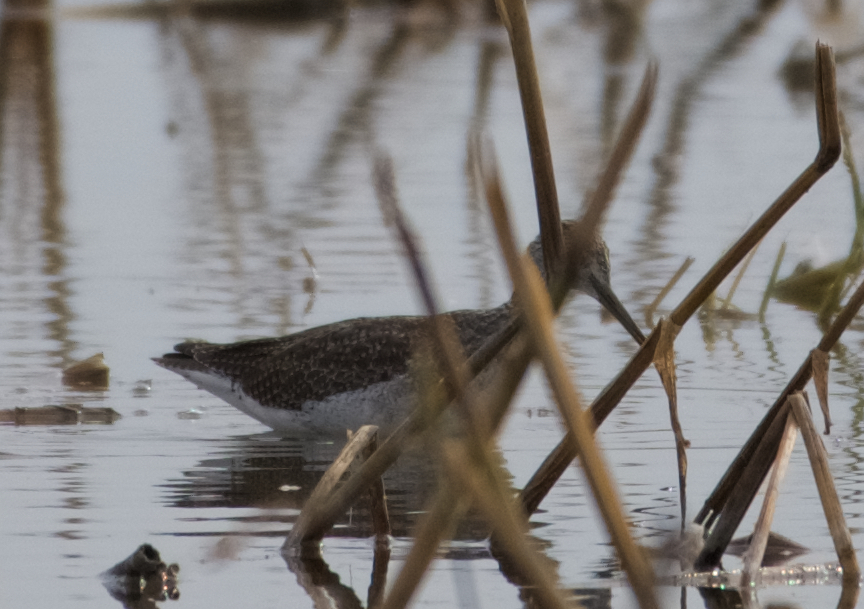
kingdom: Animalia
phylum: Chordata
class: Aves
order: Charadriiformes
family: Scolopacidae
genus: Tringa
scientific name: Tringa melanoleuca
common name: Greater yellowlegs
